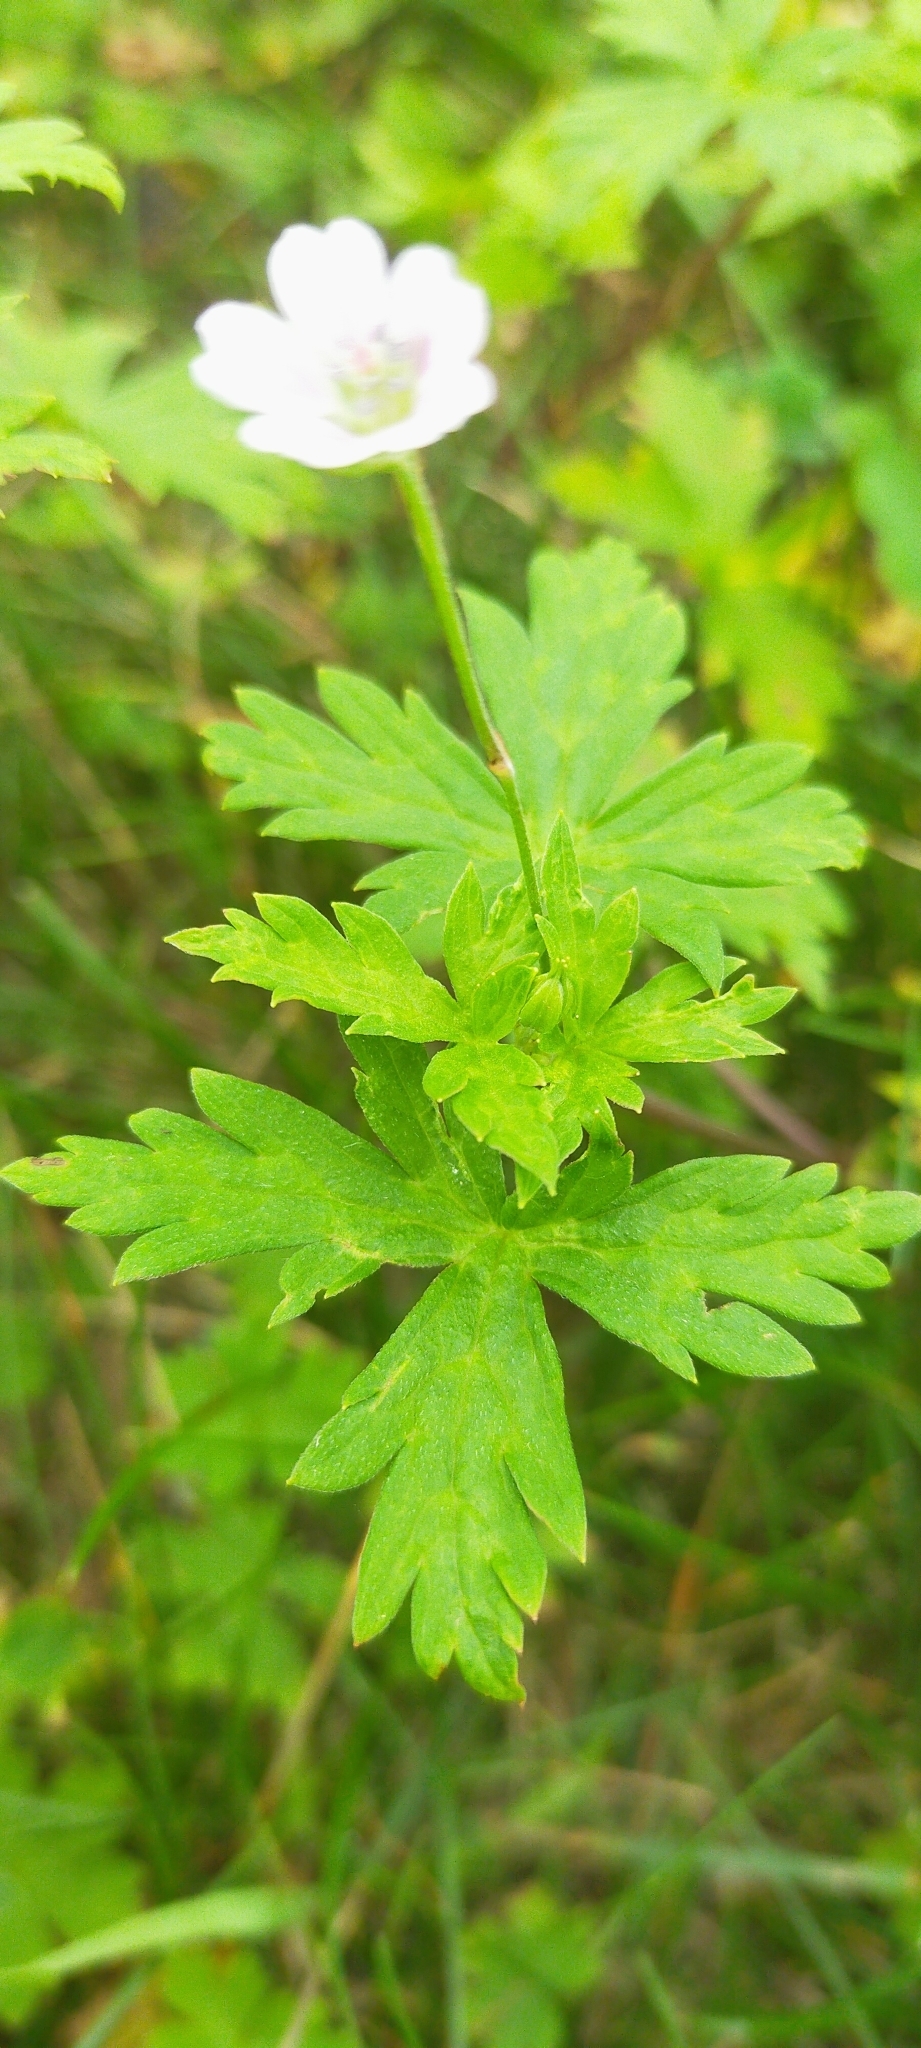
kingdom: Plantae
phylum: Tracheophyta
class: Magnoliopsida
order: Geraniales
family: Geraniaceae
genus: Geranium
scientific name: Geranium sibiricum
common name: Siberian crane's-bill
